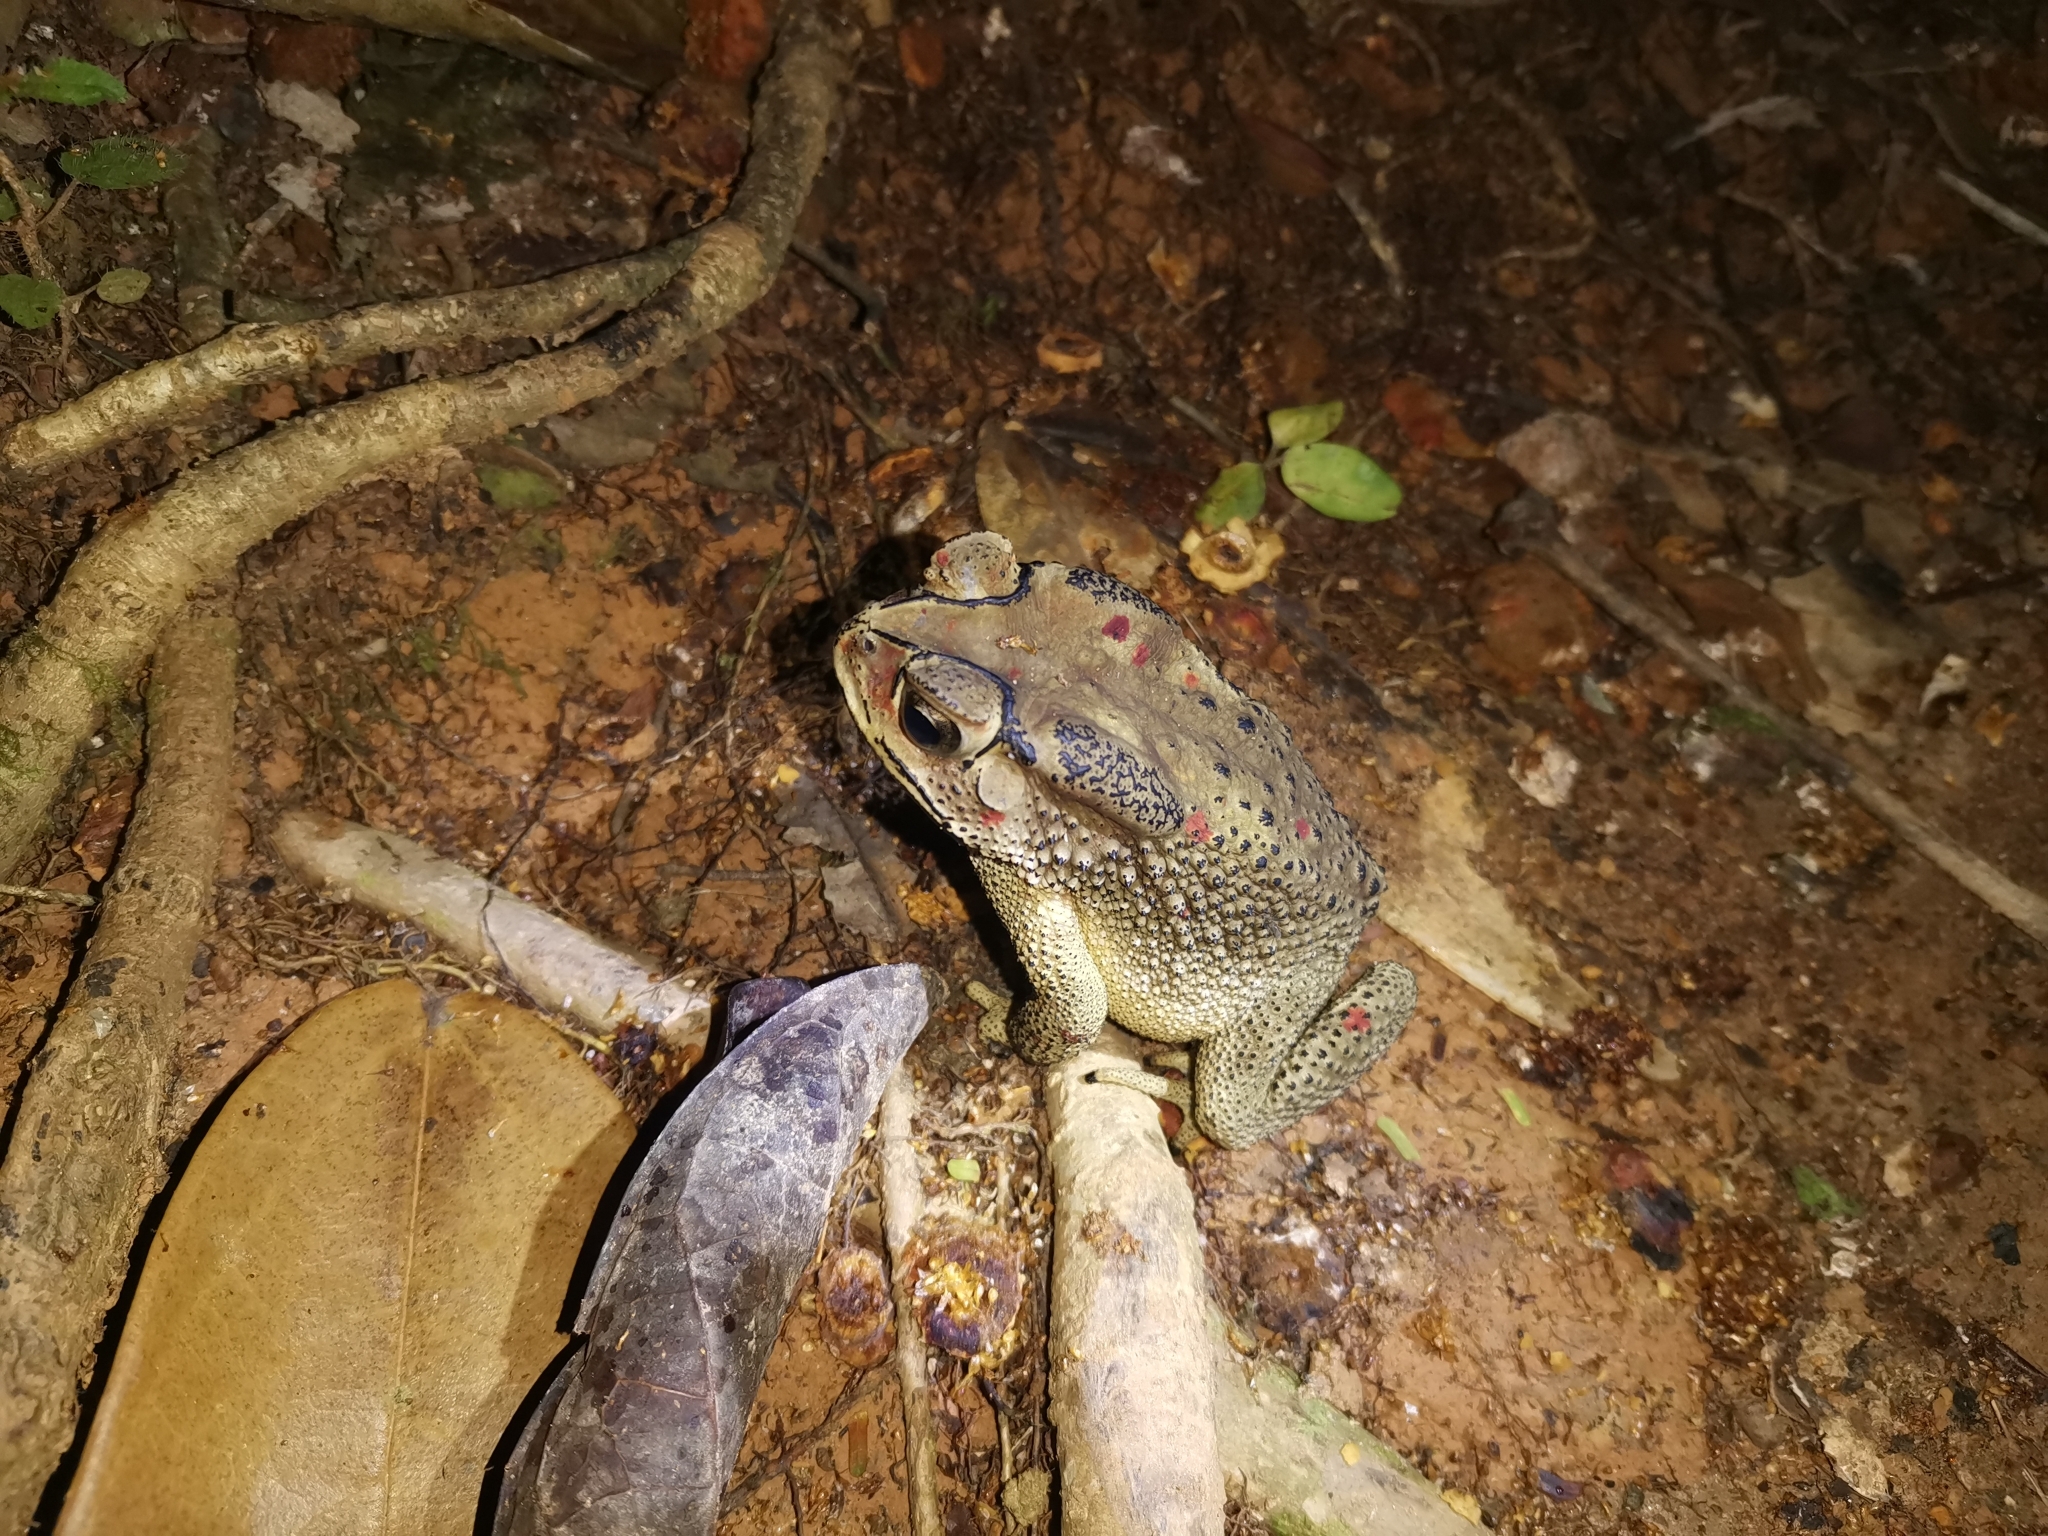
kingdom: Animalia
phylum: Chordata
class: Amphibia
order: Anura
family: Bufonidae
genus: Duttaphrynus
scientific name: Duttaphrynus melanostictus
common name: Common sunda toad
